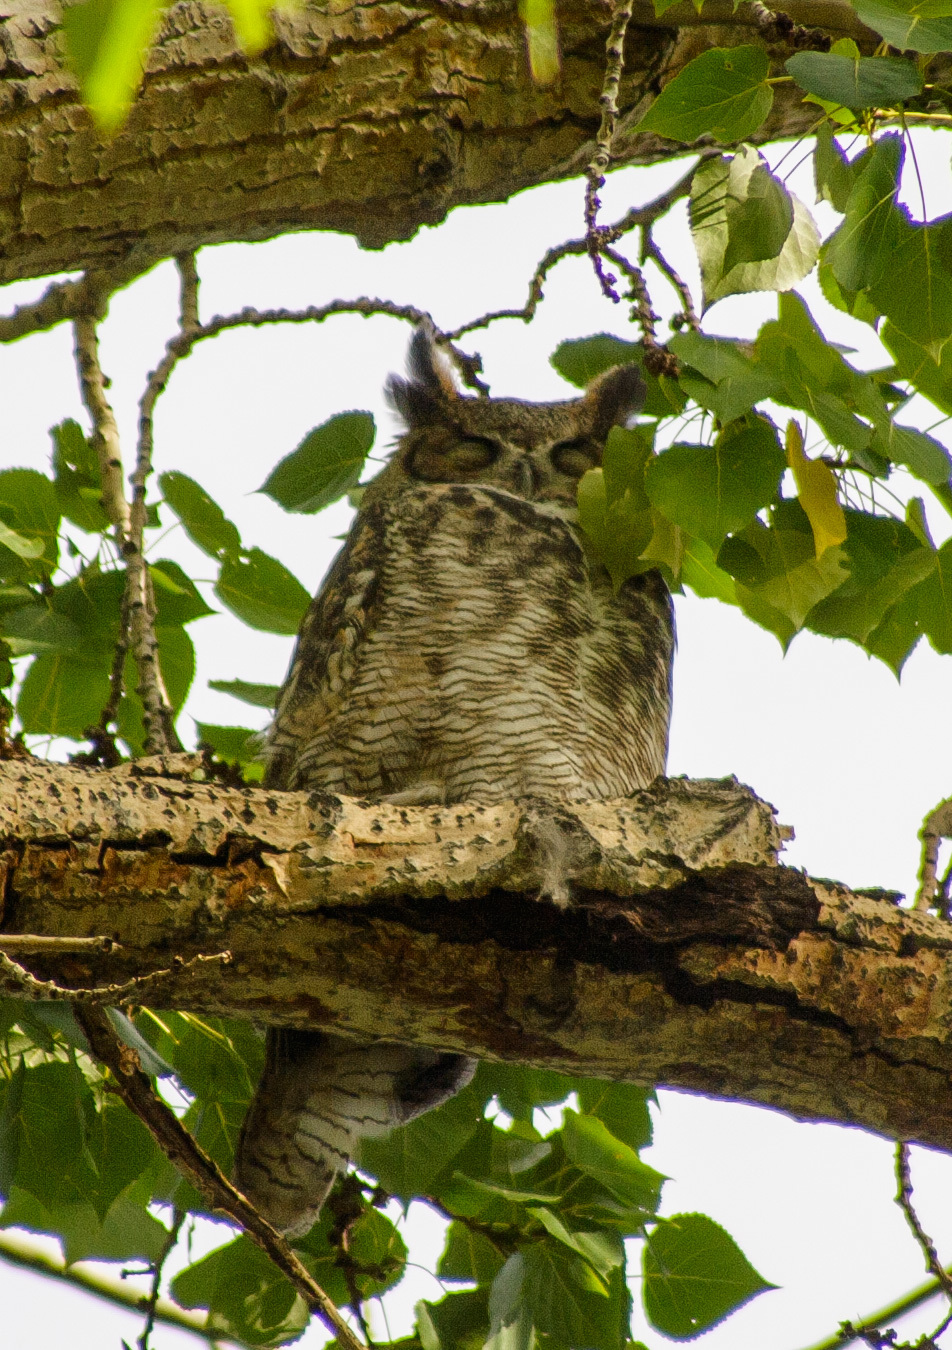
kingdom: Animalia
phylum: Chordata
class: Aves
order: Strigiformes
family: Strigidae
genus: Bubo
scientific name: Bubo virginianus
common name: Great horned owl
